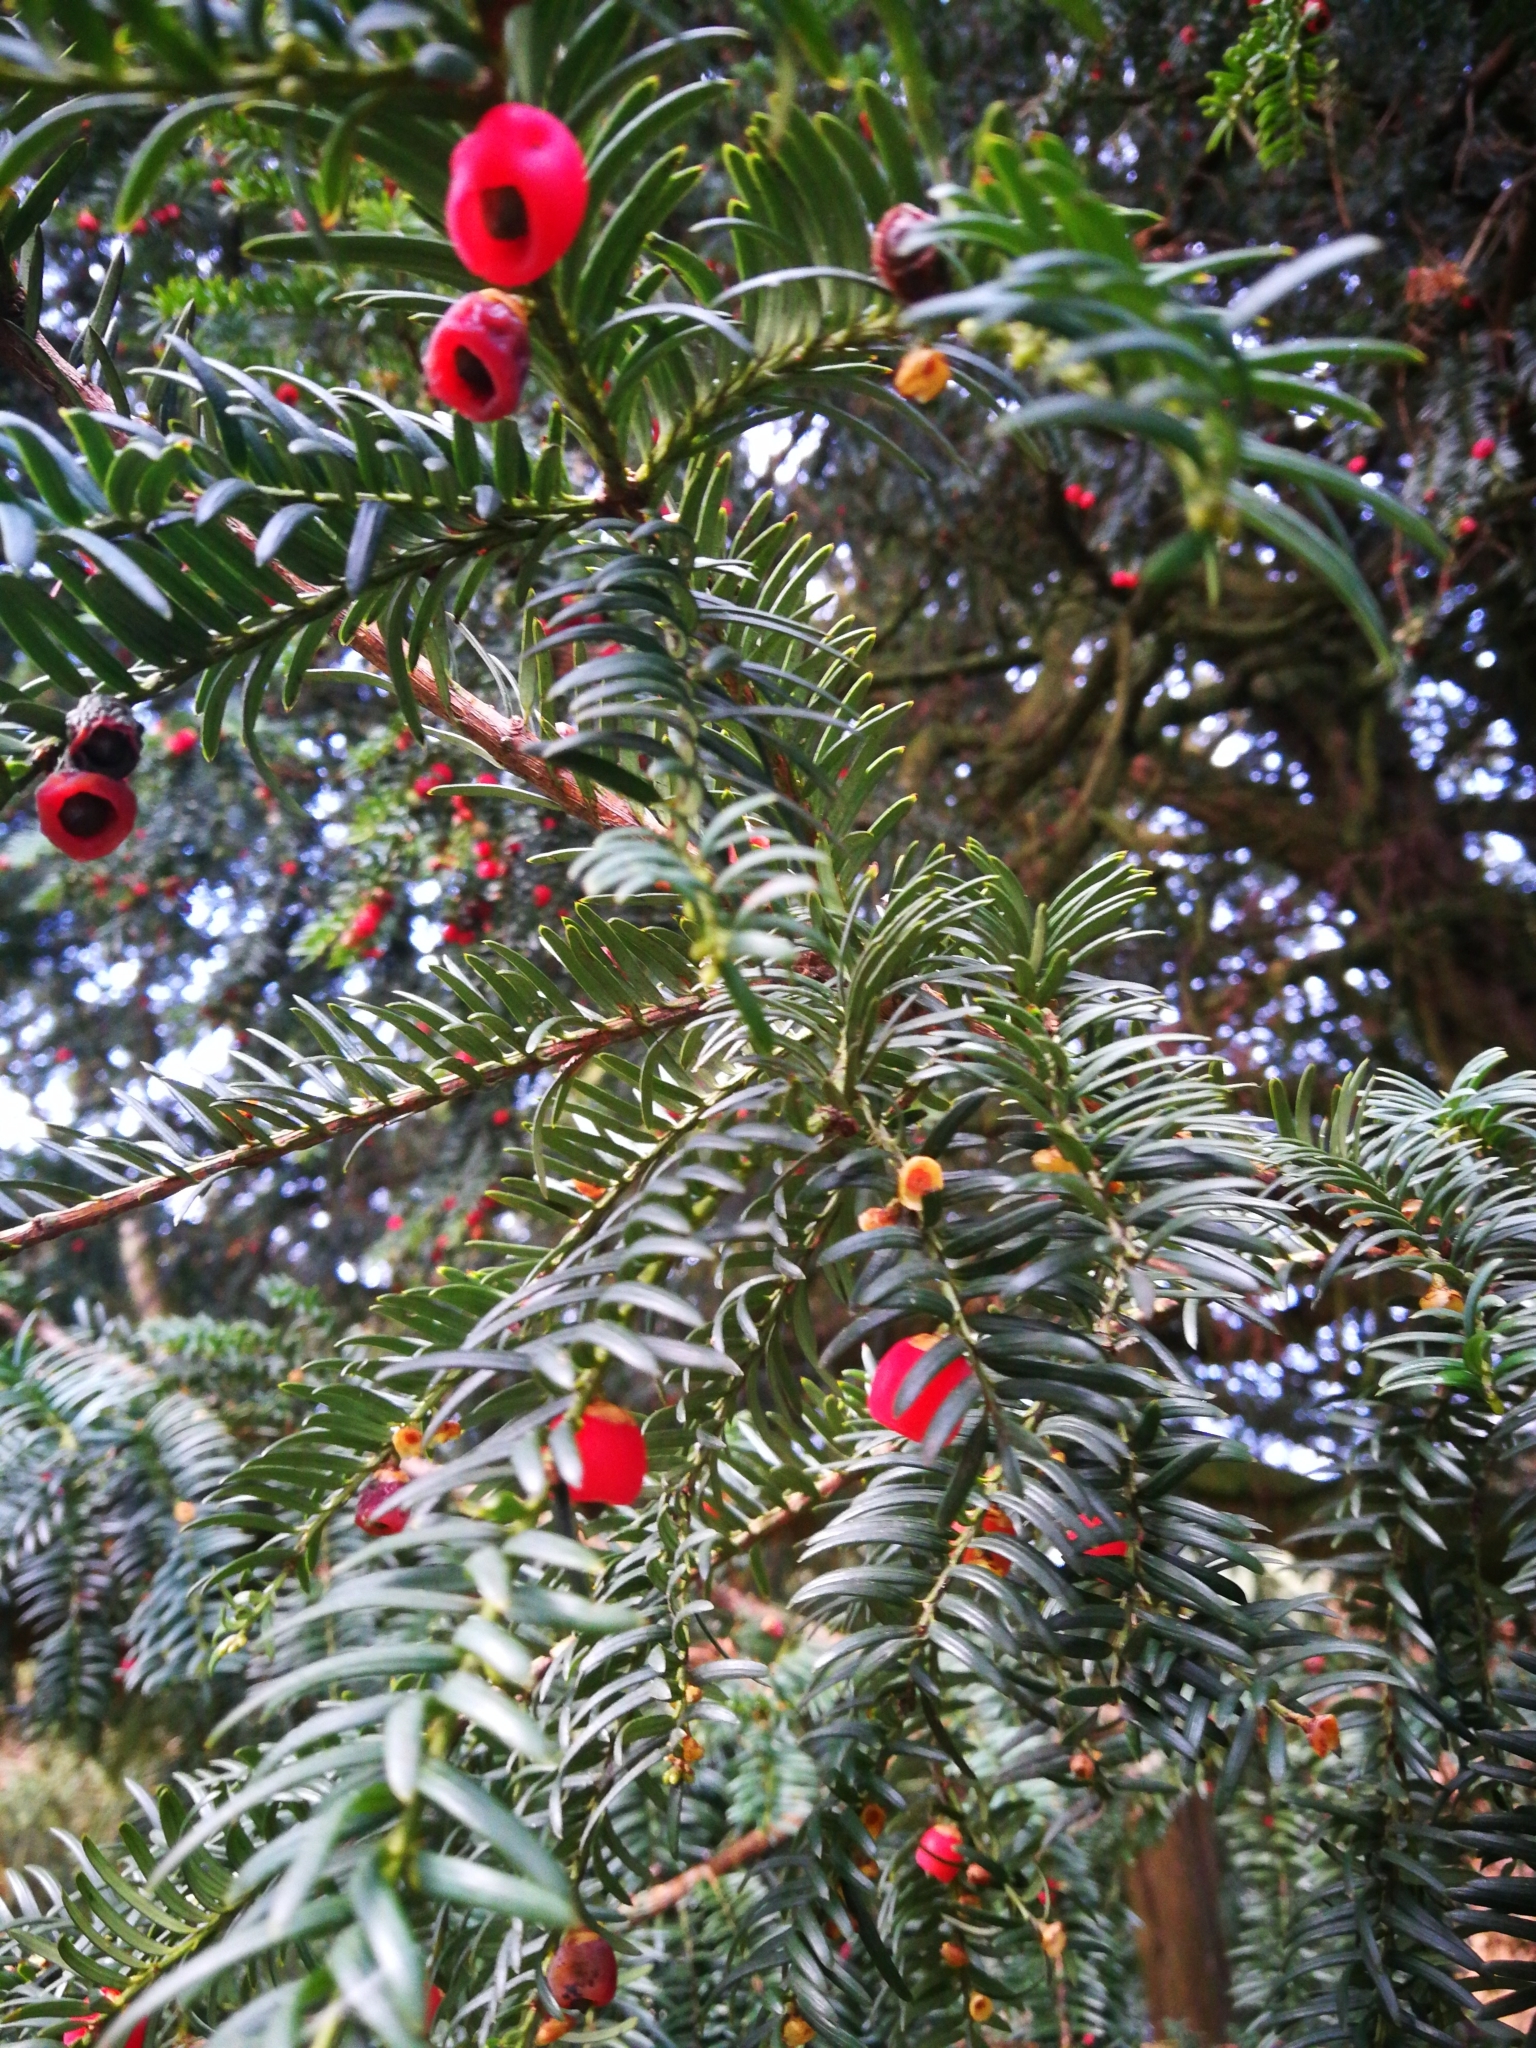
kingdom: Plantae
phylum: Tracheophyta
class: Pinopsida
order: Pinales
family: Taxaceae
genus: Taxus
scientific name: Taxus baccata
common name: Yew
